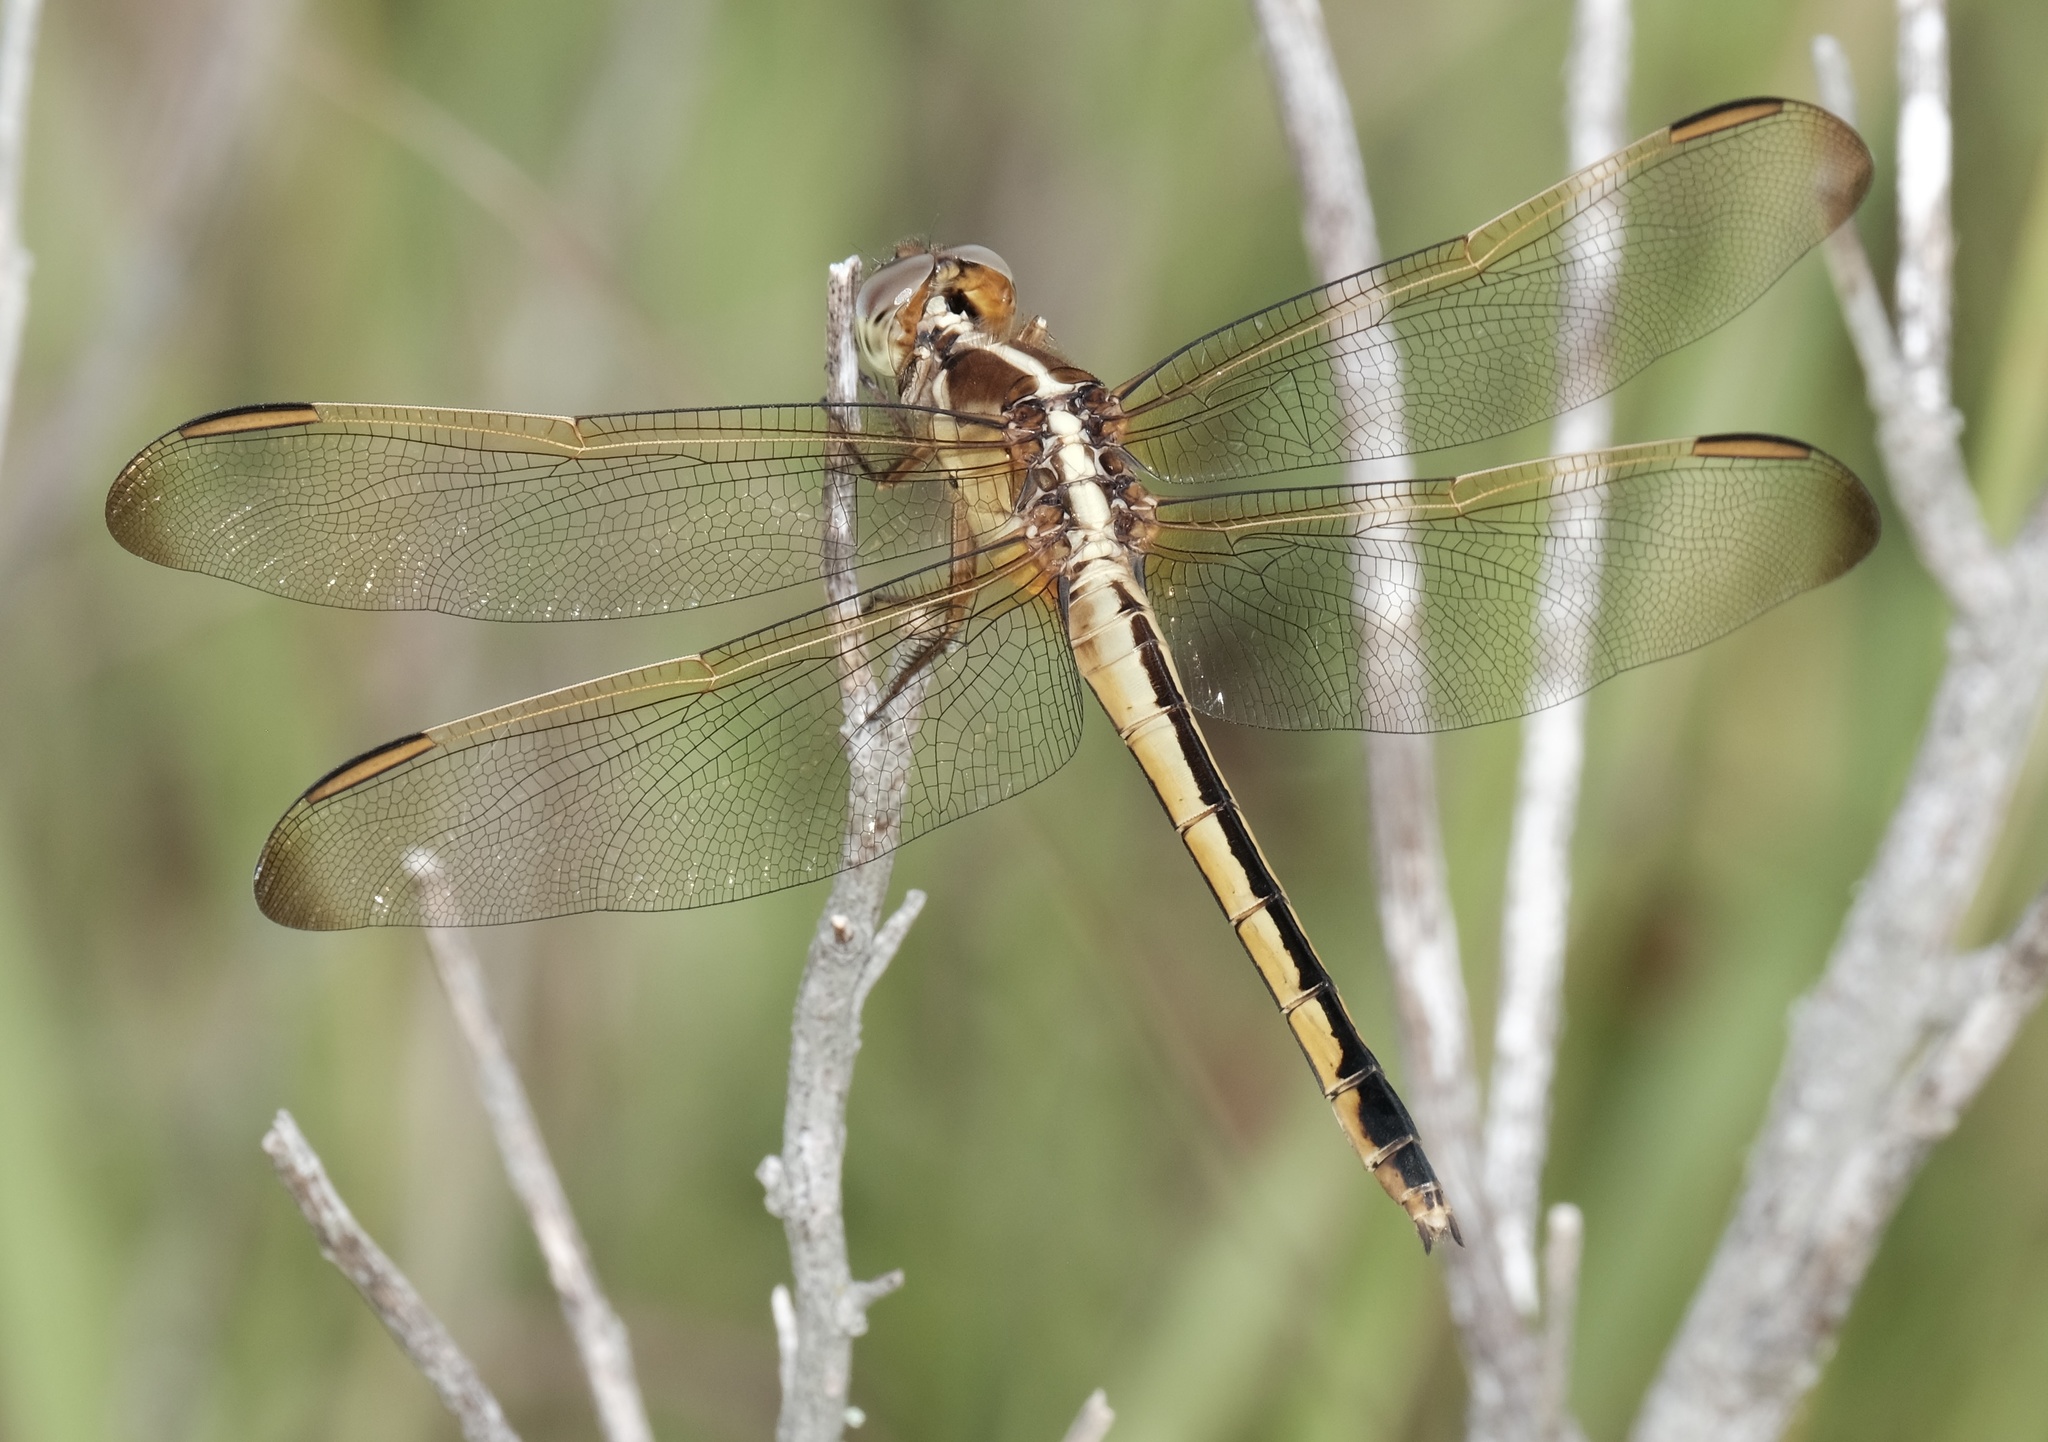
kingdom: Animalia
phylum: Arthropoda
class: Insecta
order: Odonata
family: Libellulidae
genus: Libellula
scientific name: Libellula needhami
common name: Needham's skimmer
